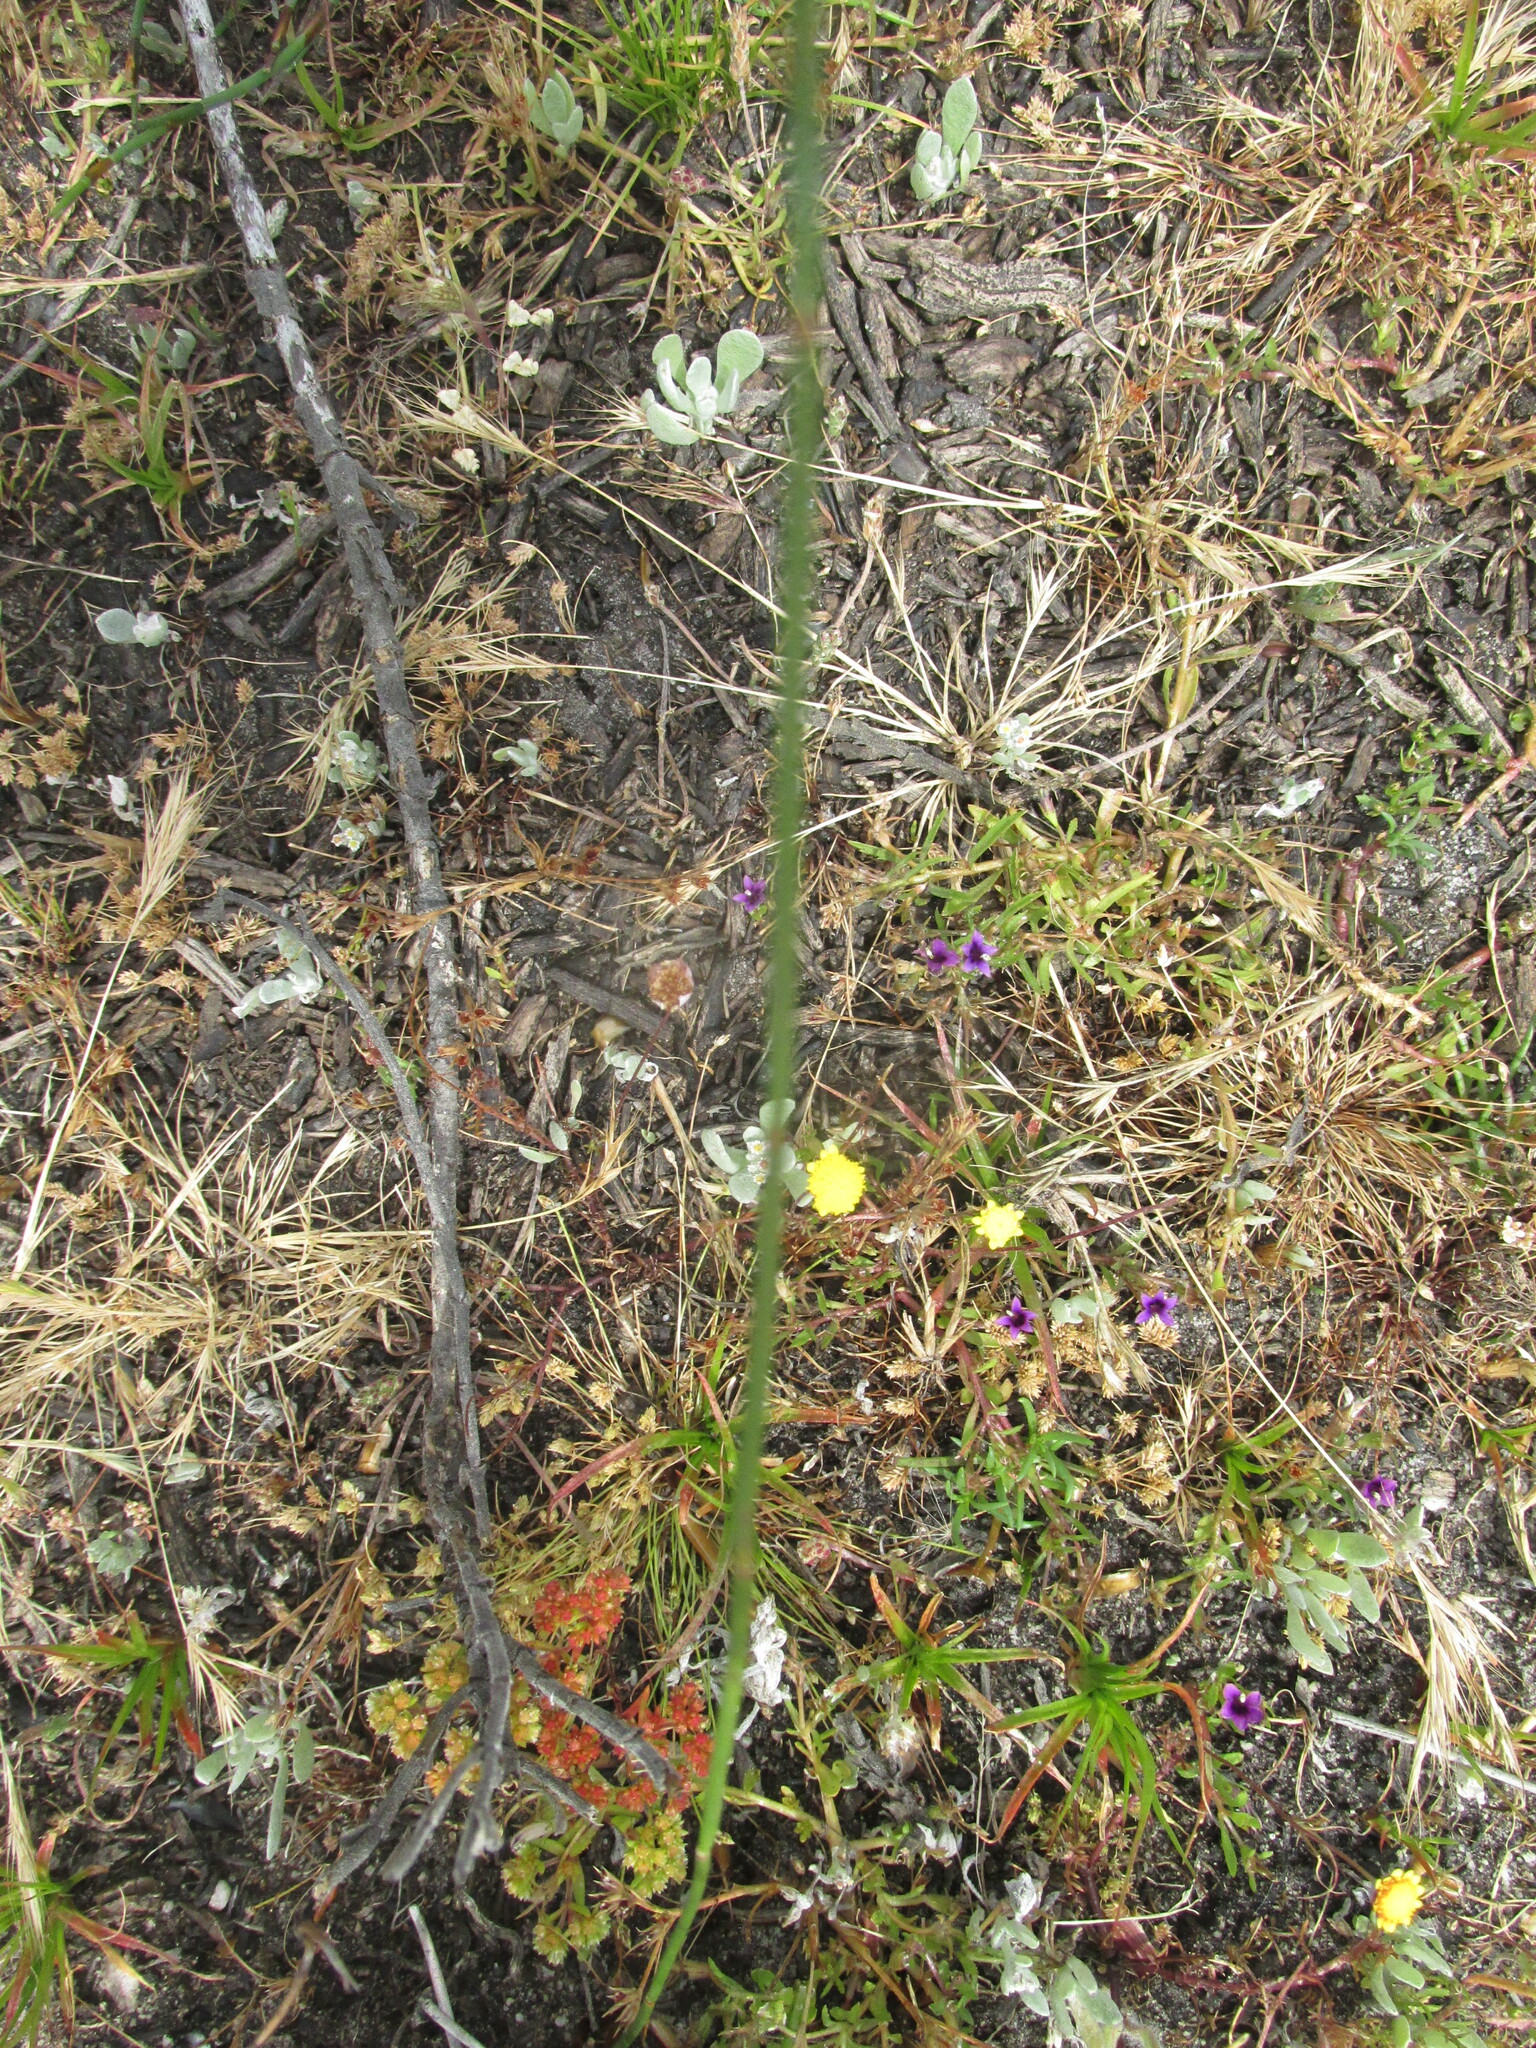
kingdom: Plantae
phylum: Tracheophyta
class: Magnoliopsida
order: Asterales
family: Campanulaceae
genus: Monopsis
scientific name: Monopsis debilis
